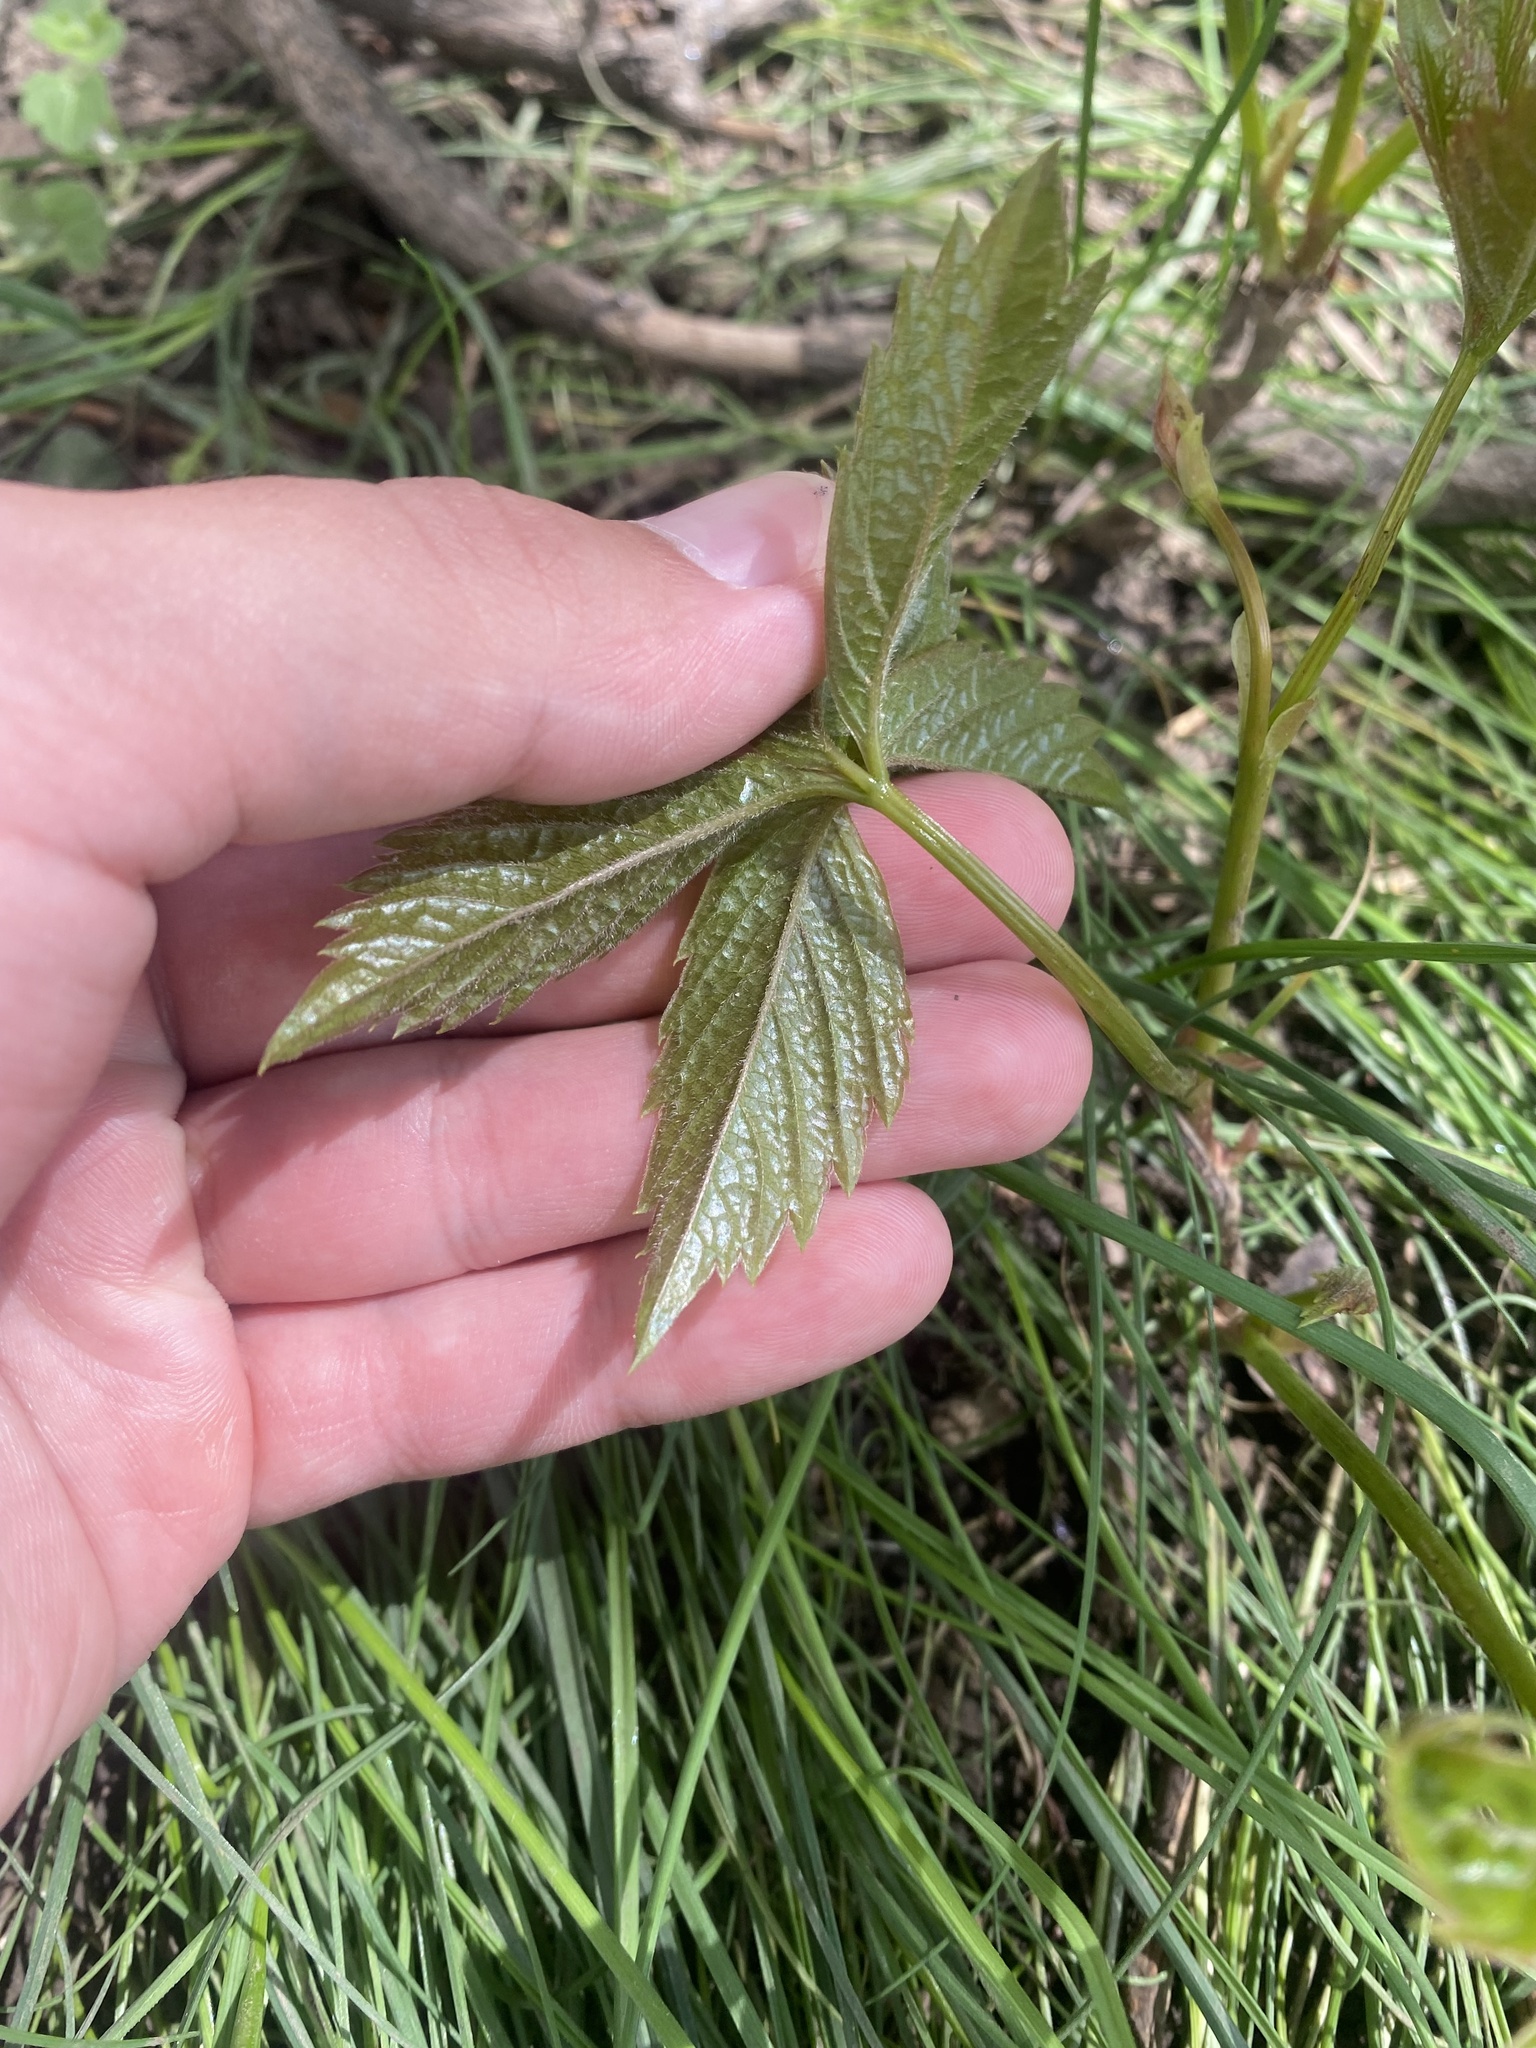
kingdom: Plantae
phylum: Tracheophyta
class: Magnoliopsida
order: Vitales
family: Vitaceae
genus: Parthenocissus
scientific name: Parthenocissus inserta
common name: False virginia-creeper
